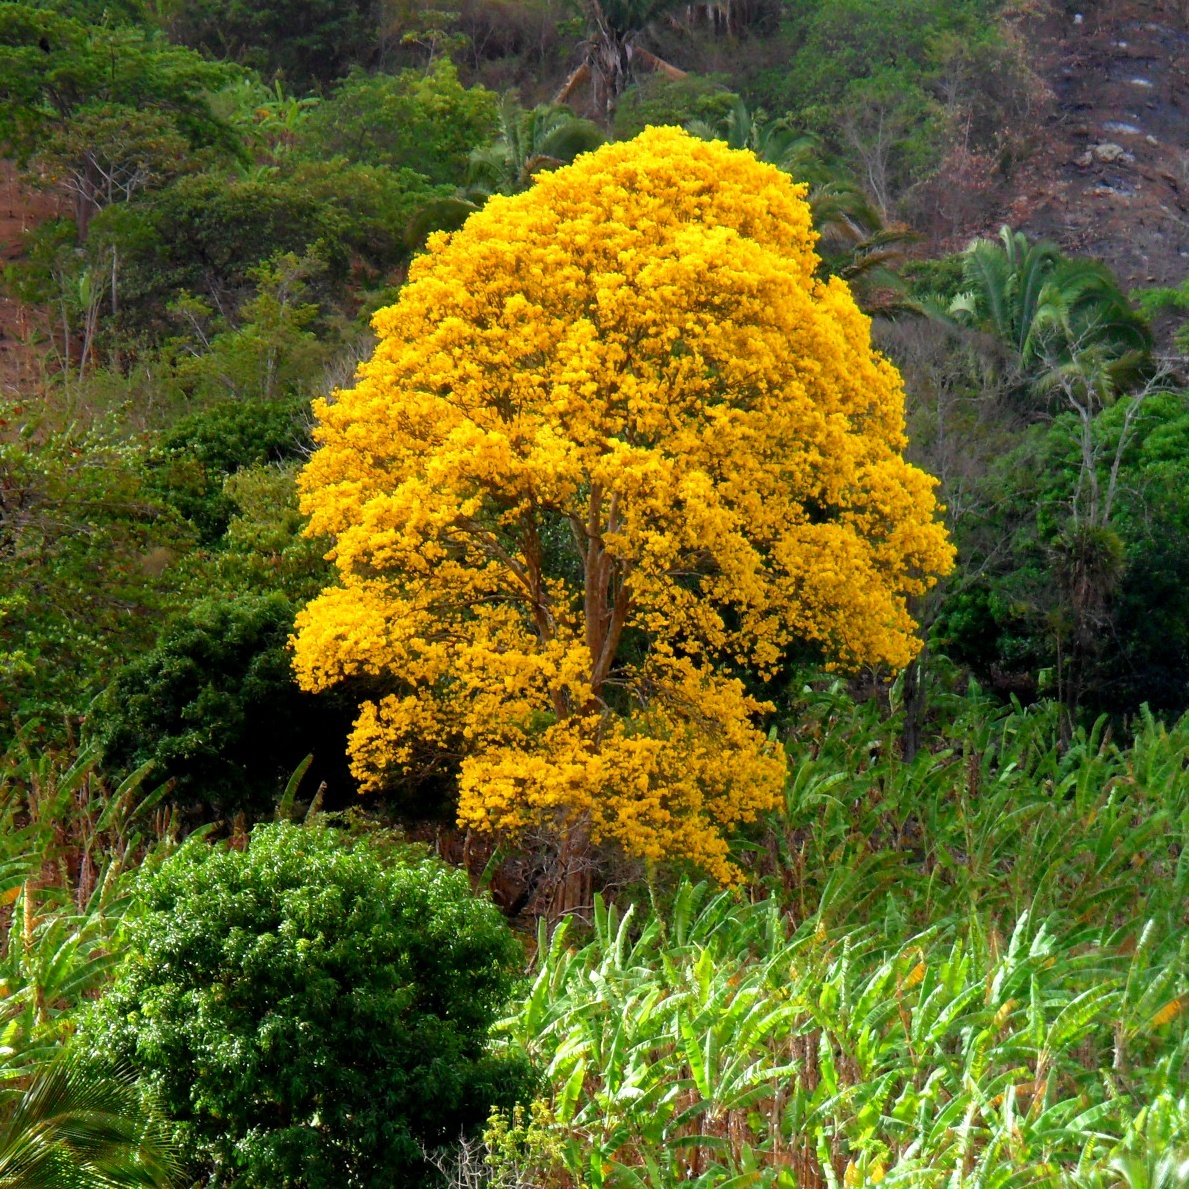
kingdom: Plantae
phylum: Tracheophyta
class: Magnoliopsida
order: Lamiales
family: Bignoniaceae
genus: Handroanthus
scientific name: Handroanthus serratifolius
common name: Yellow ipe
